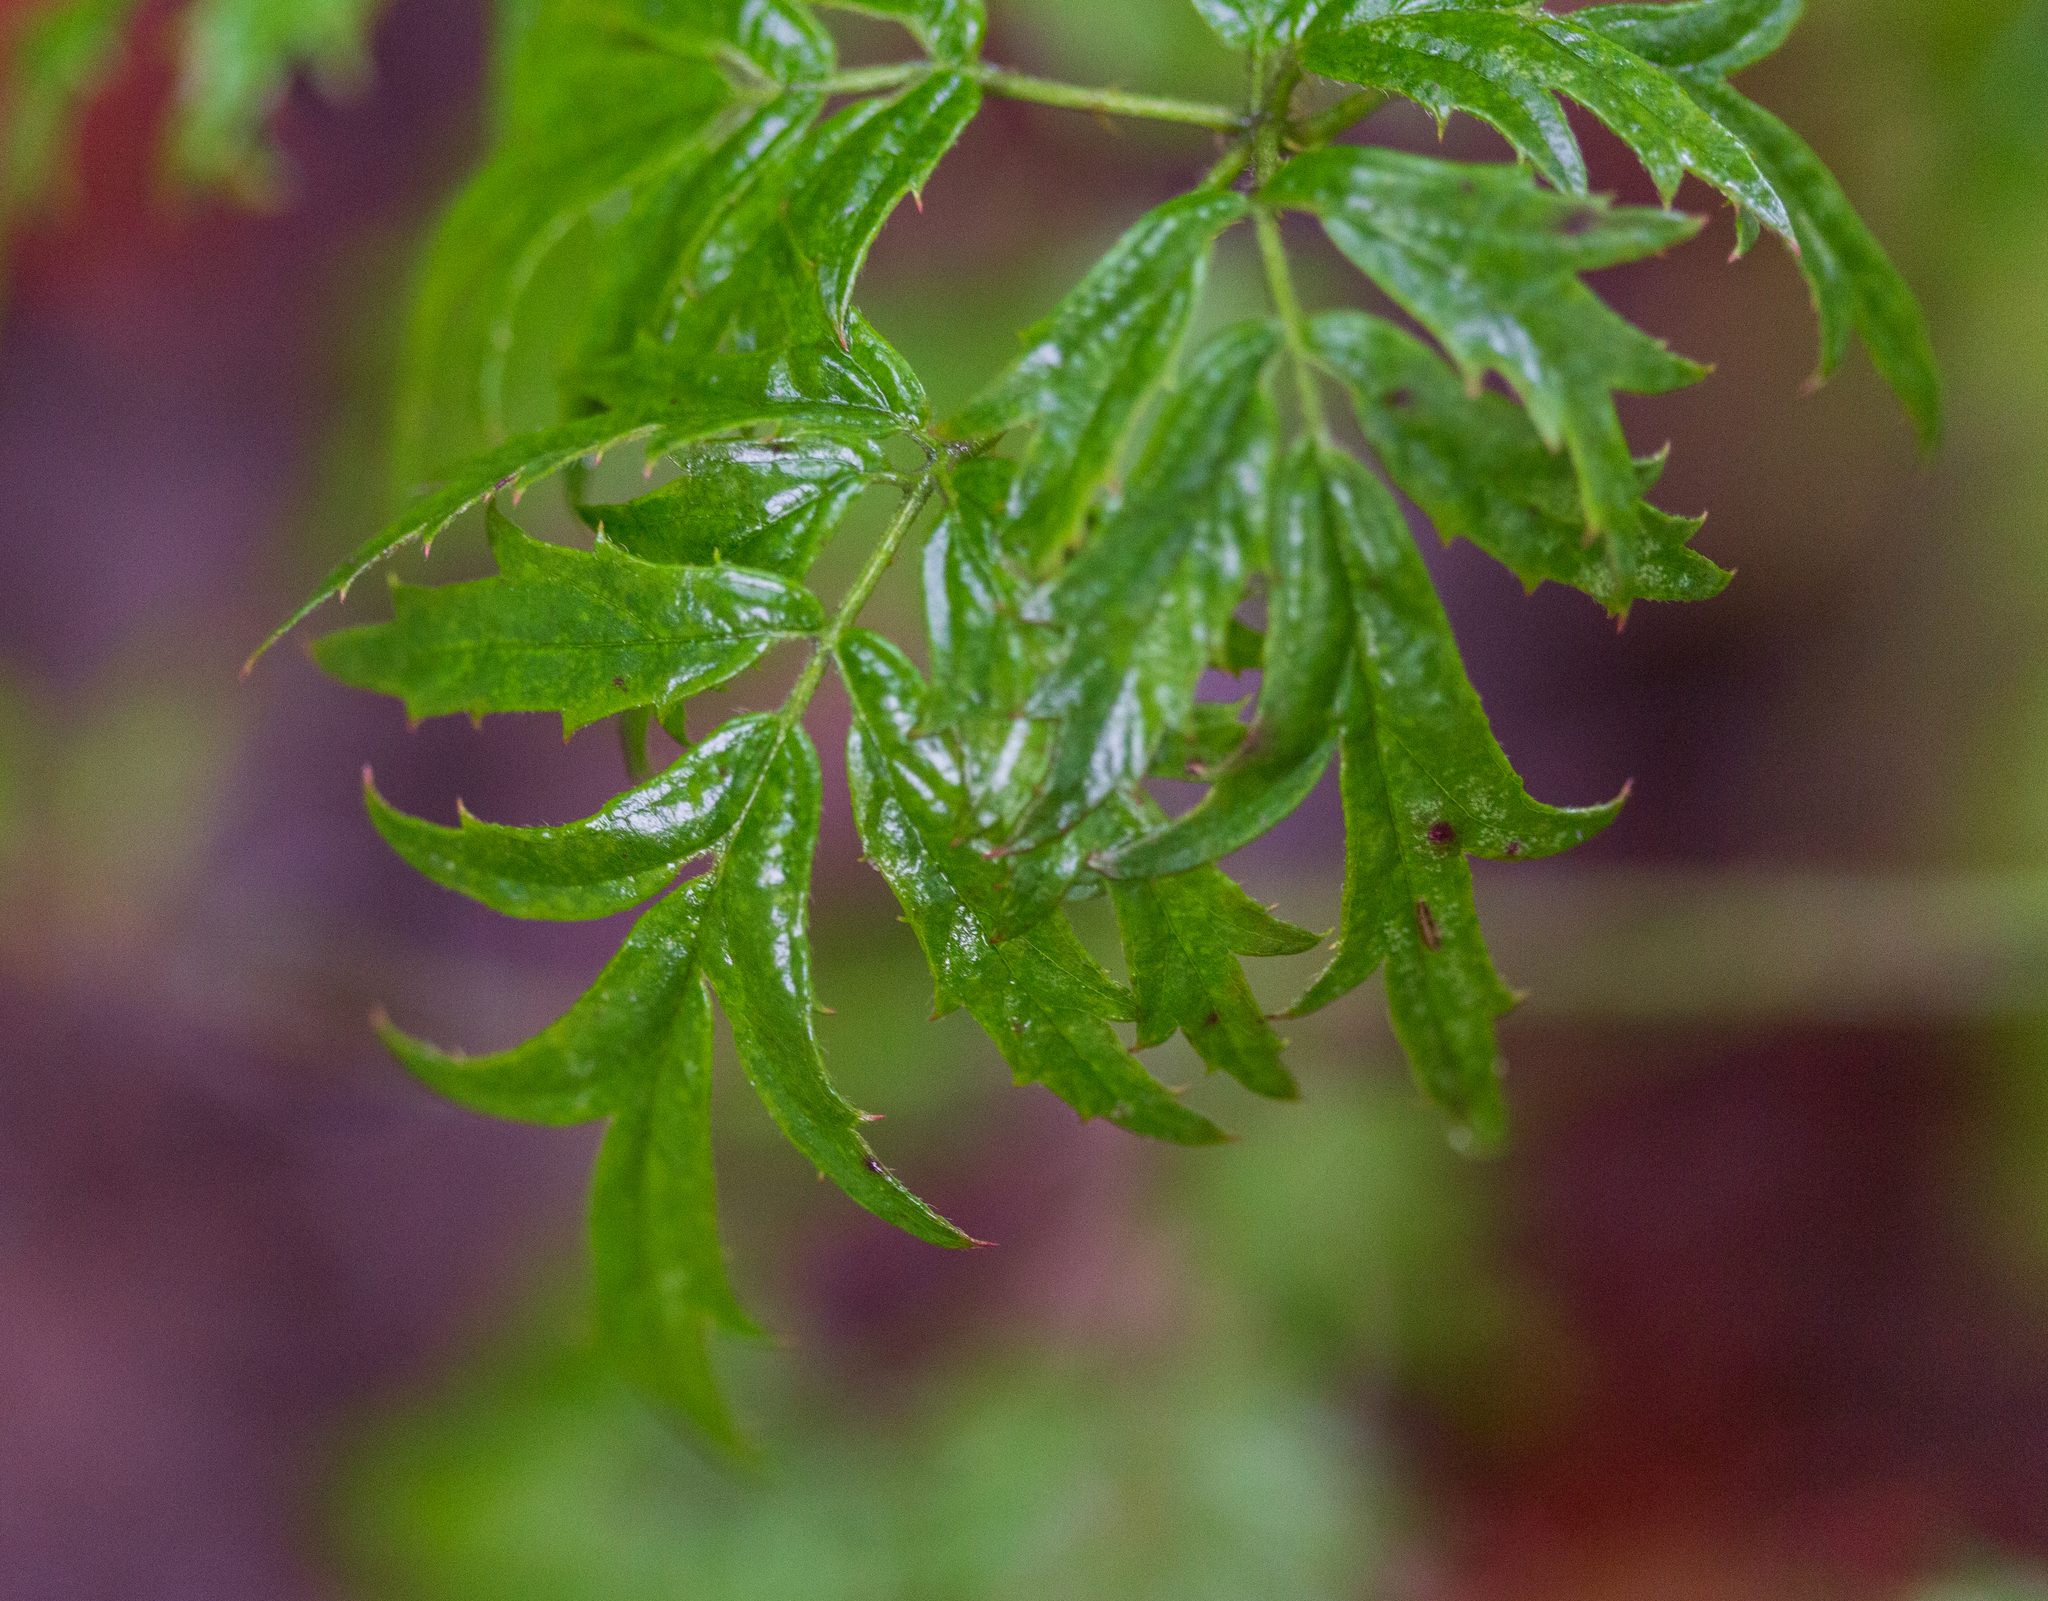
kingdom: Plantae
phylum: Tracheophyta
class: Magnoliopsida
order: Rosales
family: Rosaceae
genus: Rubus
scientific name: Rubus laciniatus
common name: Evergreen blackberry
